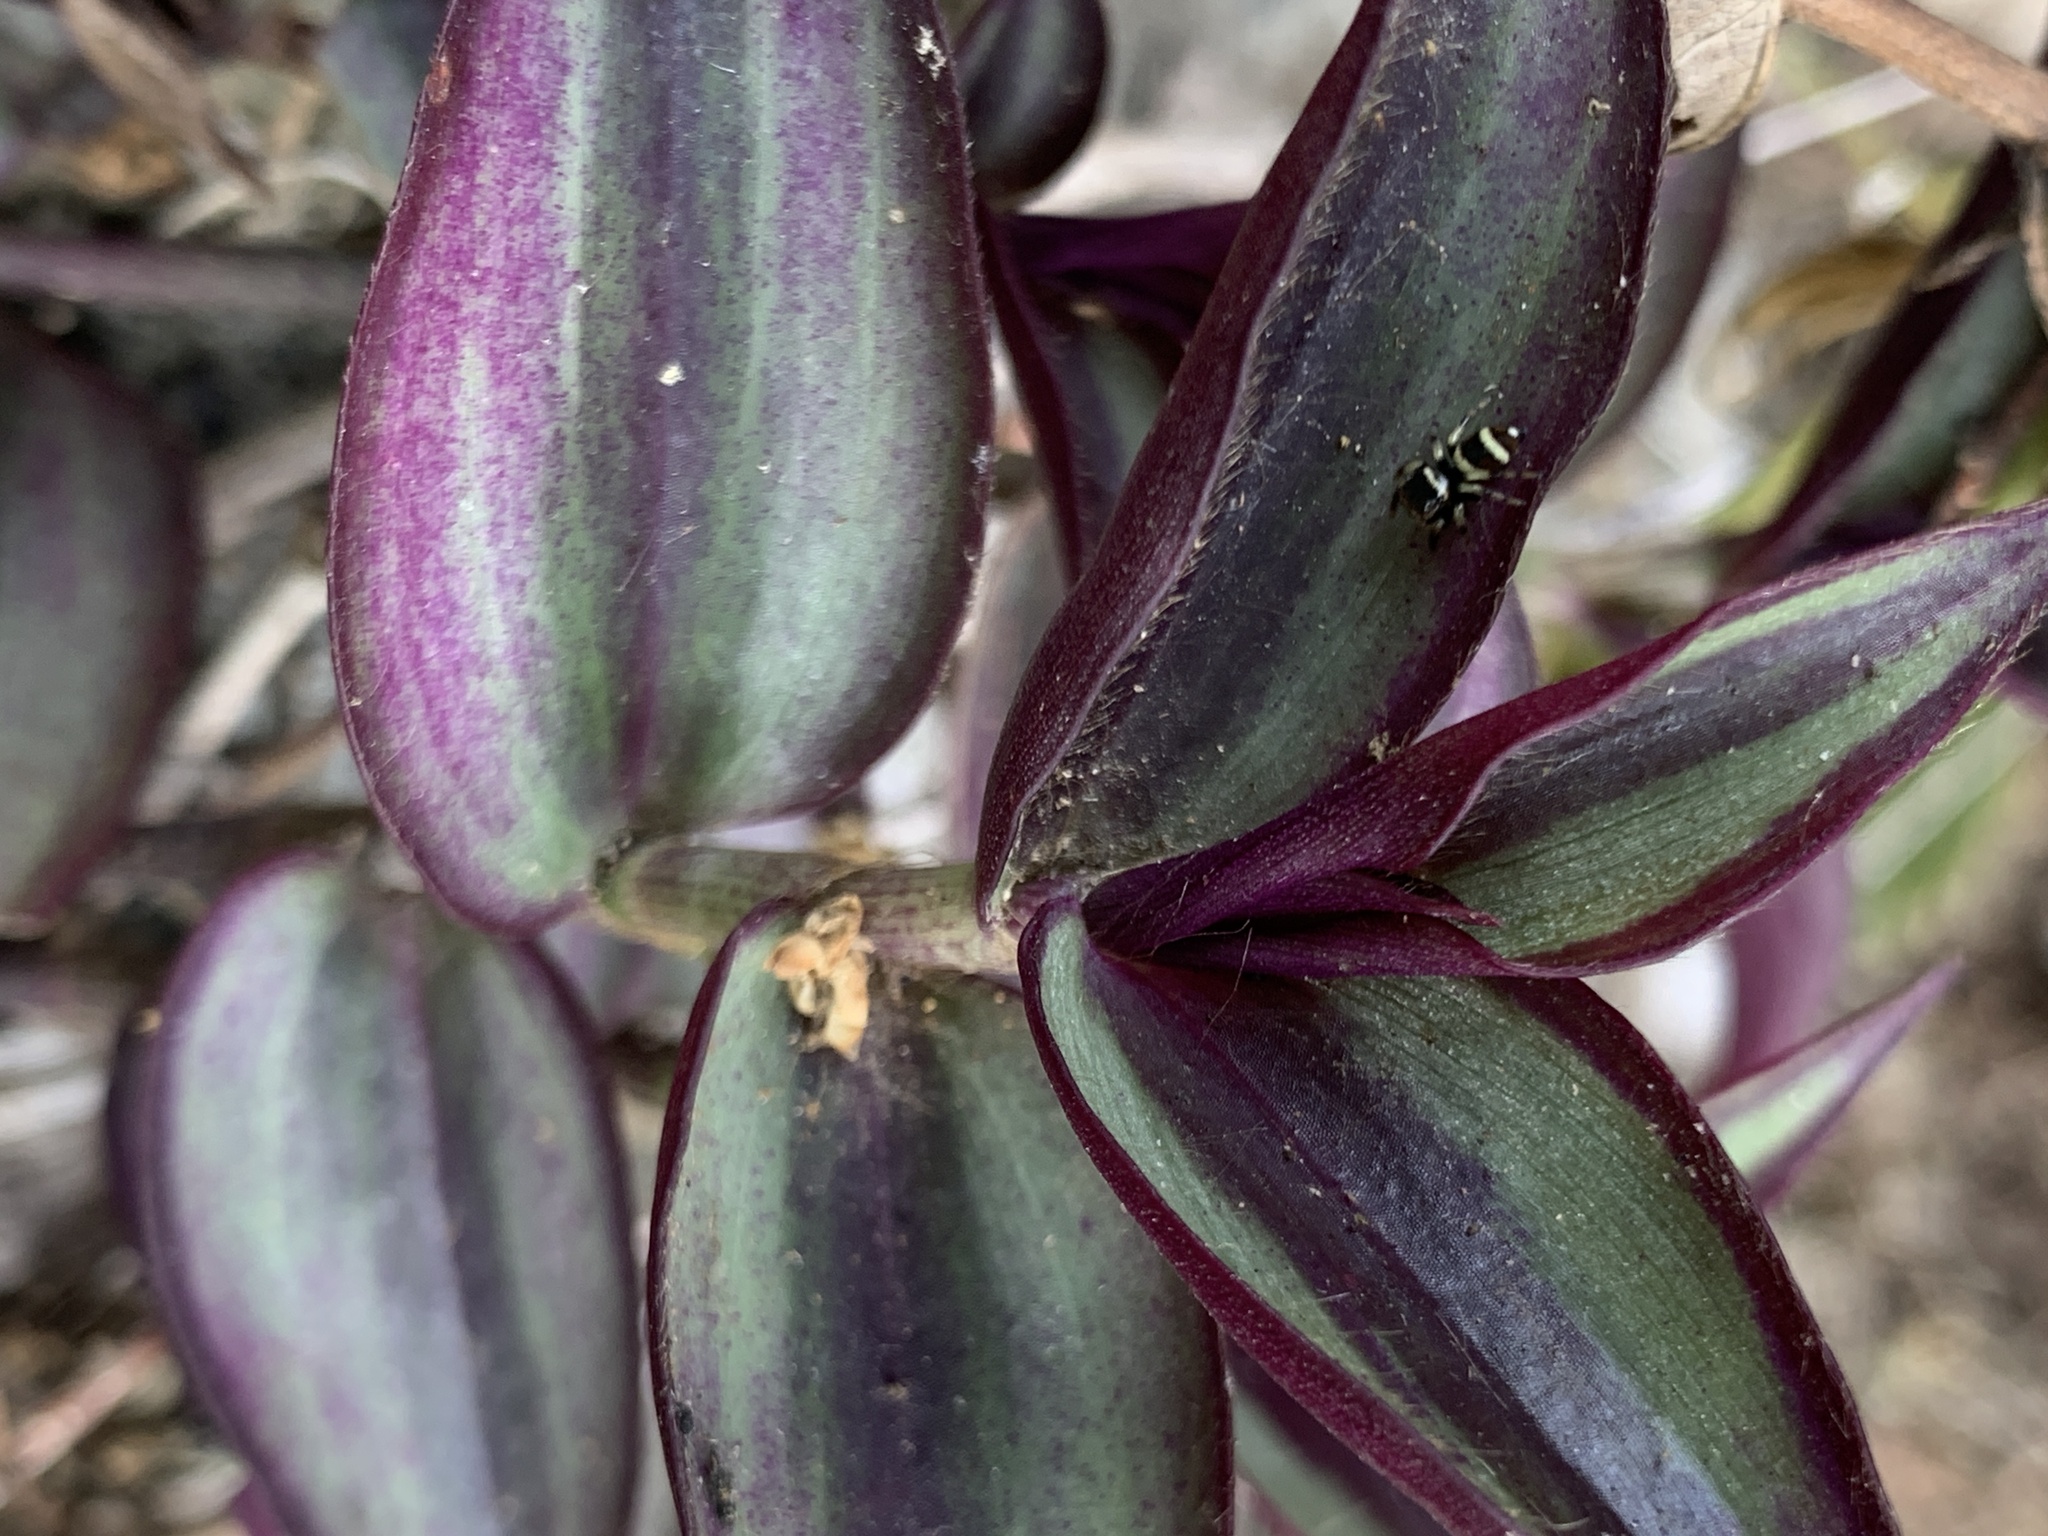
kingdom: Plantae
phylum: Tracheophyta
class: Liliopsida
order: Commelinales
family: Commelinaceae
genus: Tradescantia
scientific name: Tradescantia zebrina
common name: Inchplant
